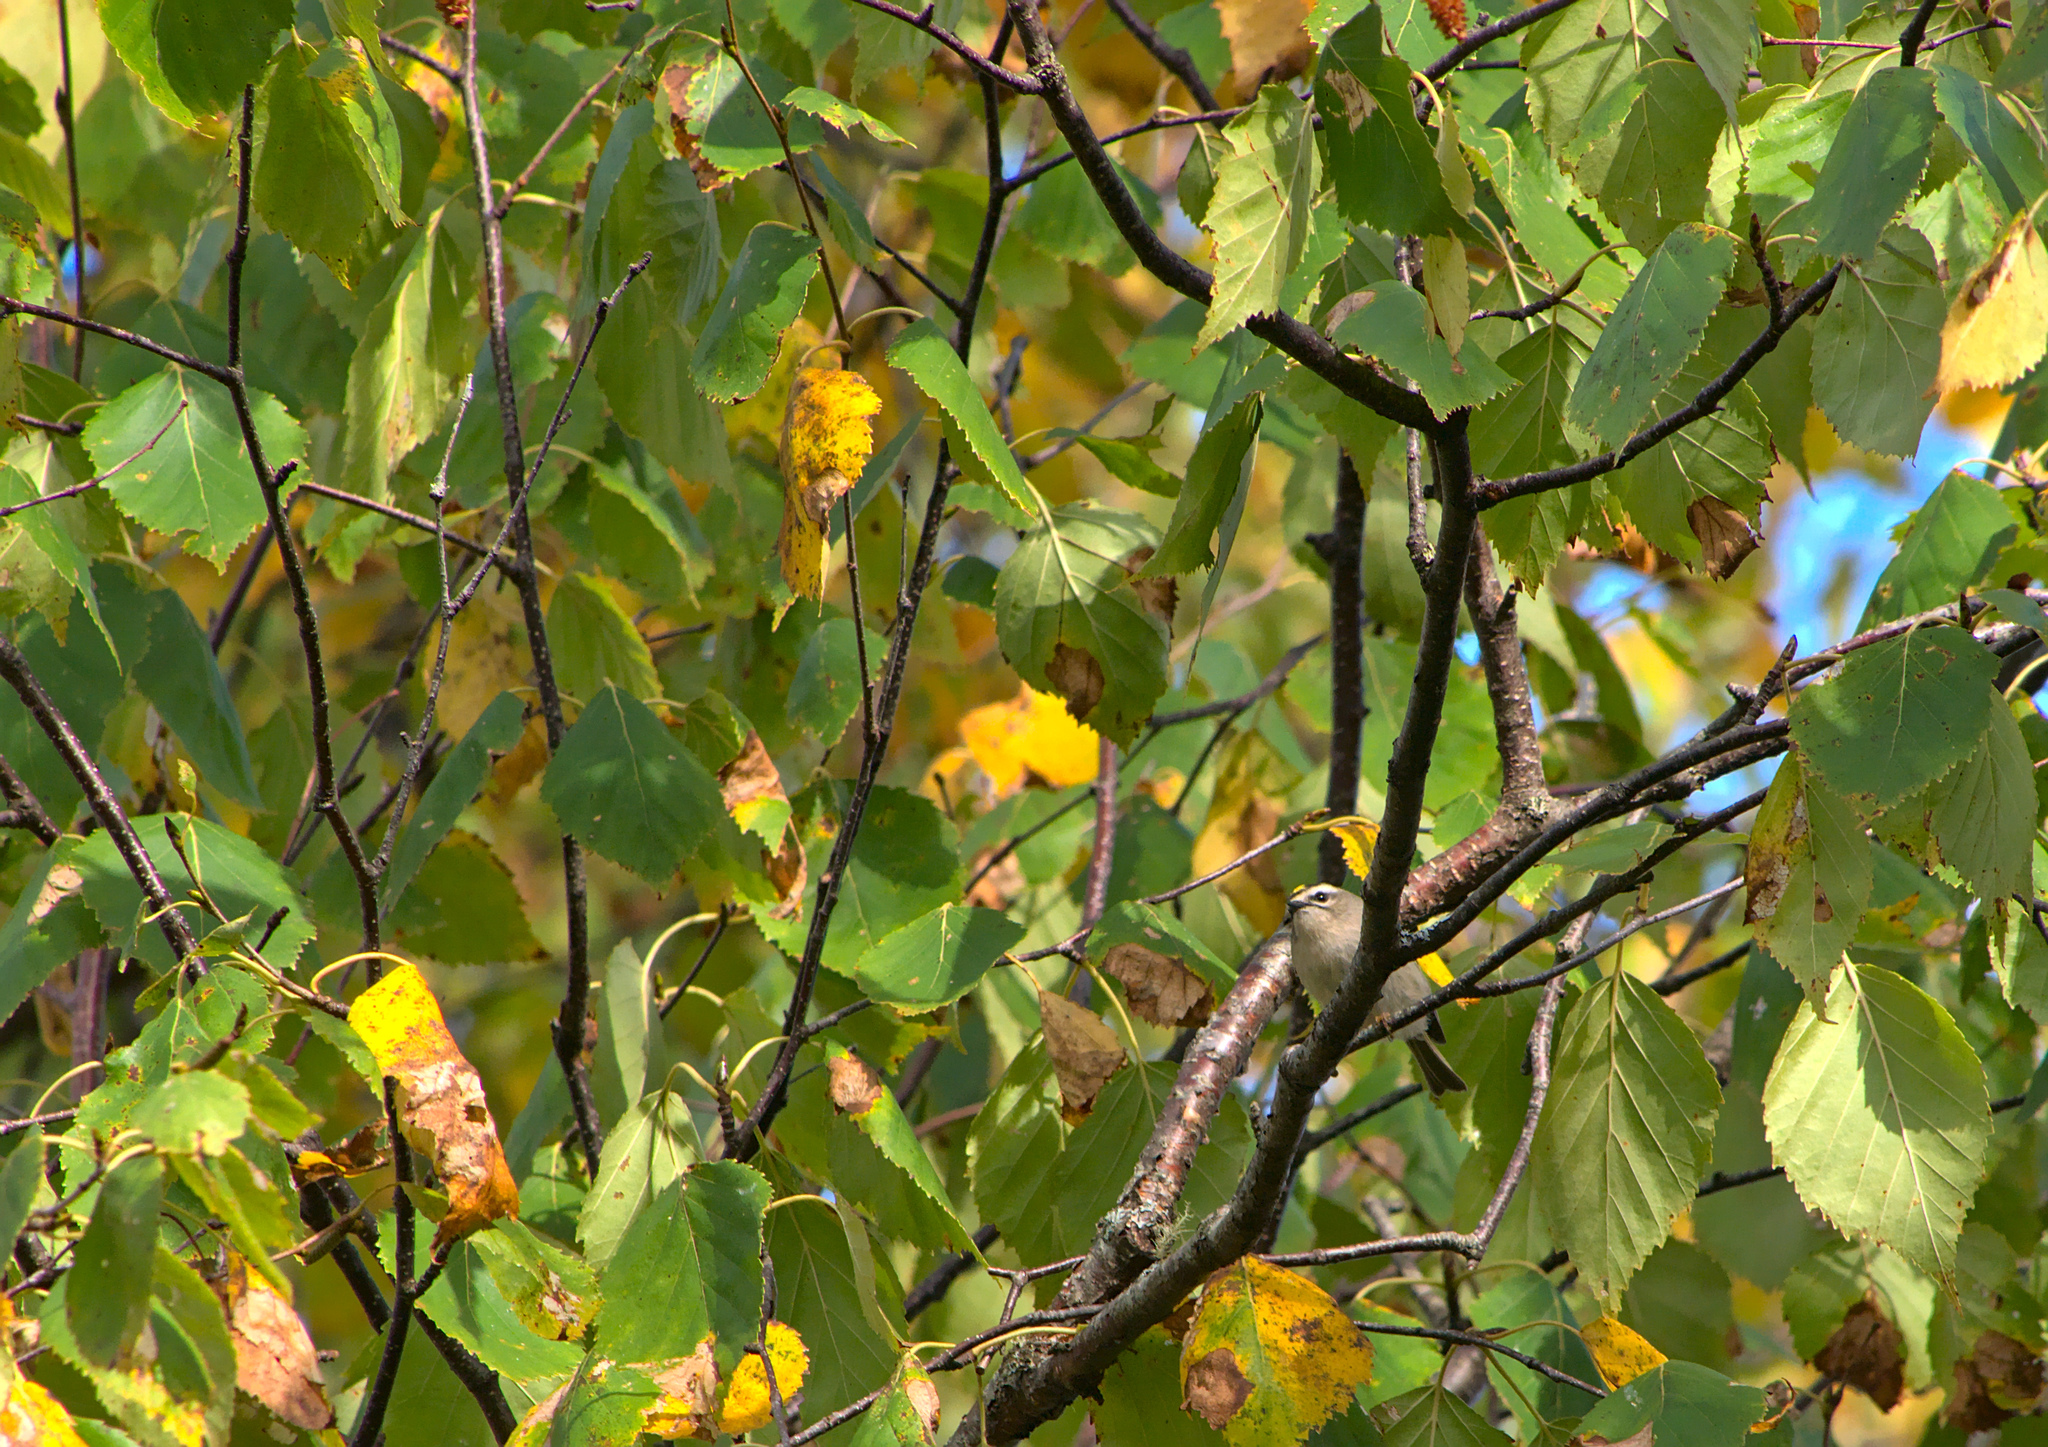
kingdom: Animalia
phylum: Chordata
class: Aves
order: Passeriformes
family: Regulidae
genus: Regulus
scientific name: Regulus satrapa
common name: Golden-crowned kinglet
